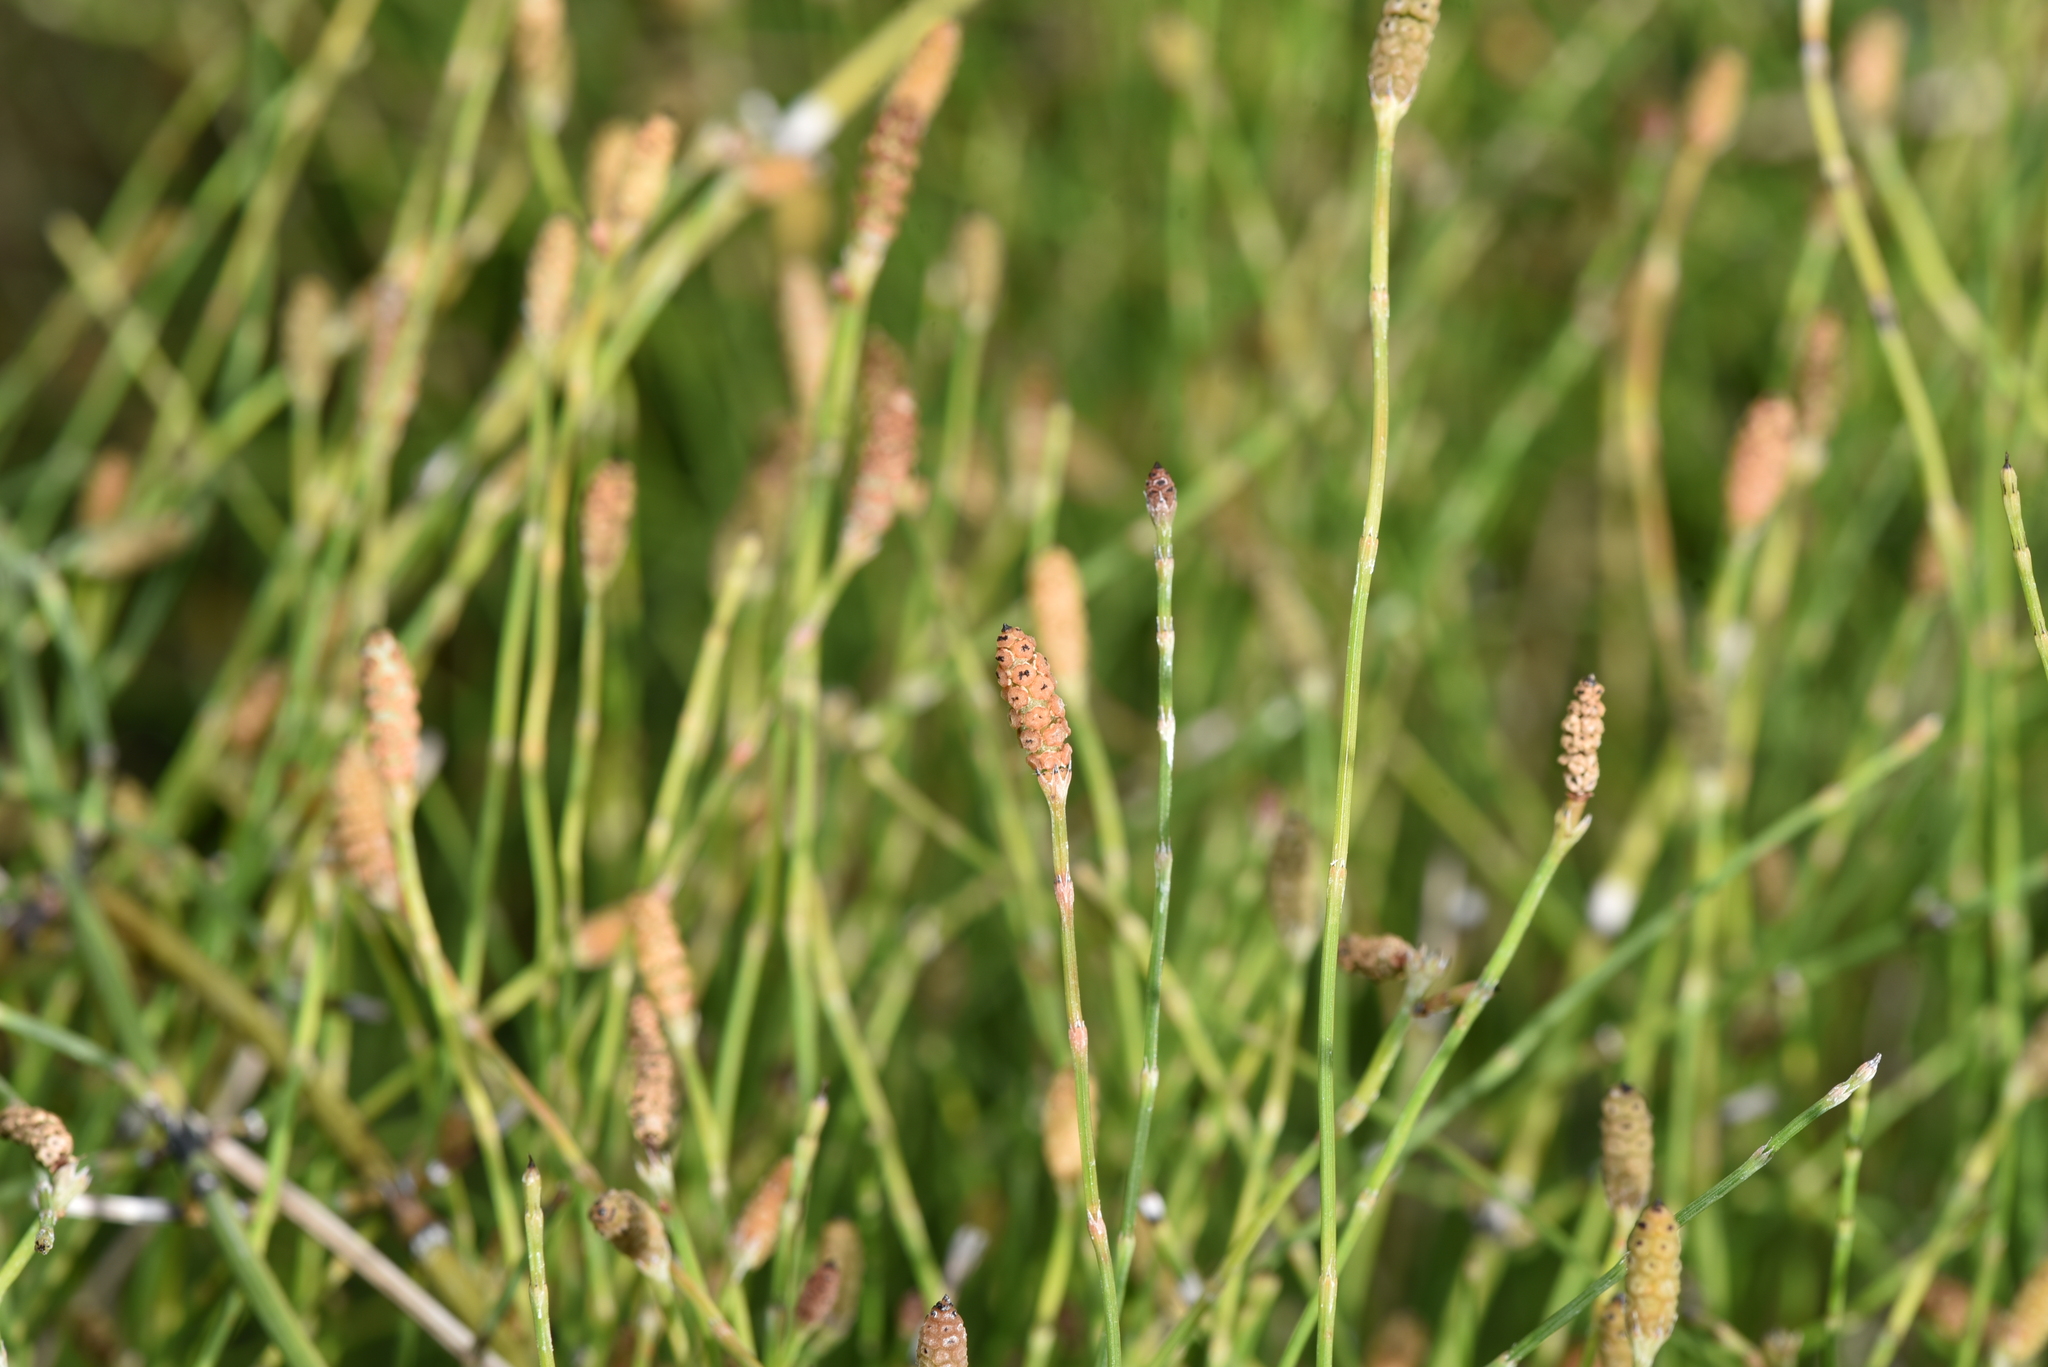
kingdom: Plantae
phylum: Tracheophyta
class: Polypodiopsida
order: Equisetales
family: Equisetaceae
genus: Equisetum
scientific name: Equisetum ramosissimum
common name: Branched horsetail
